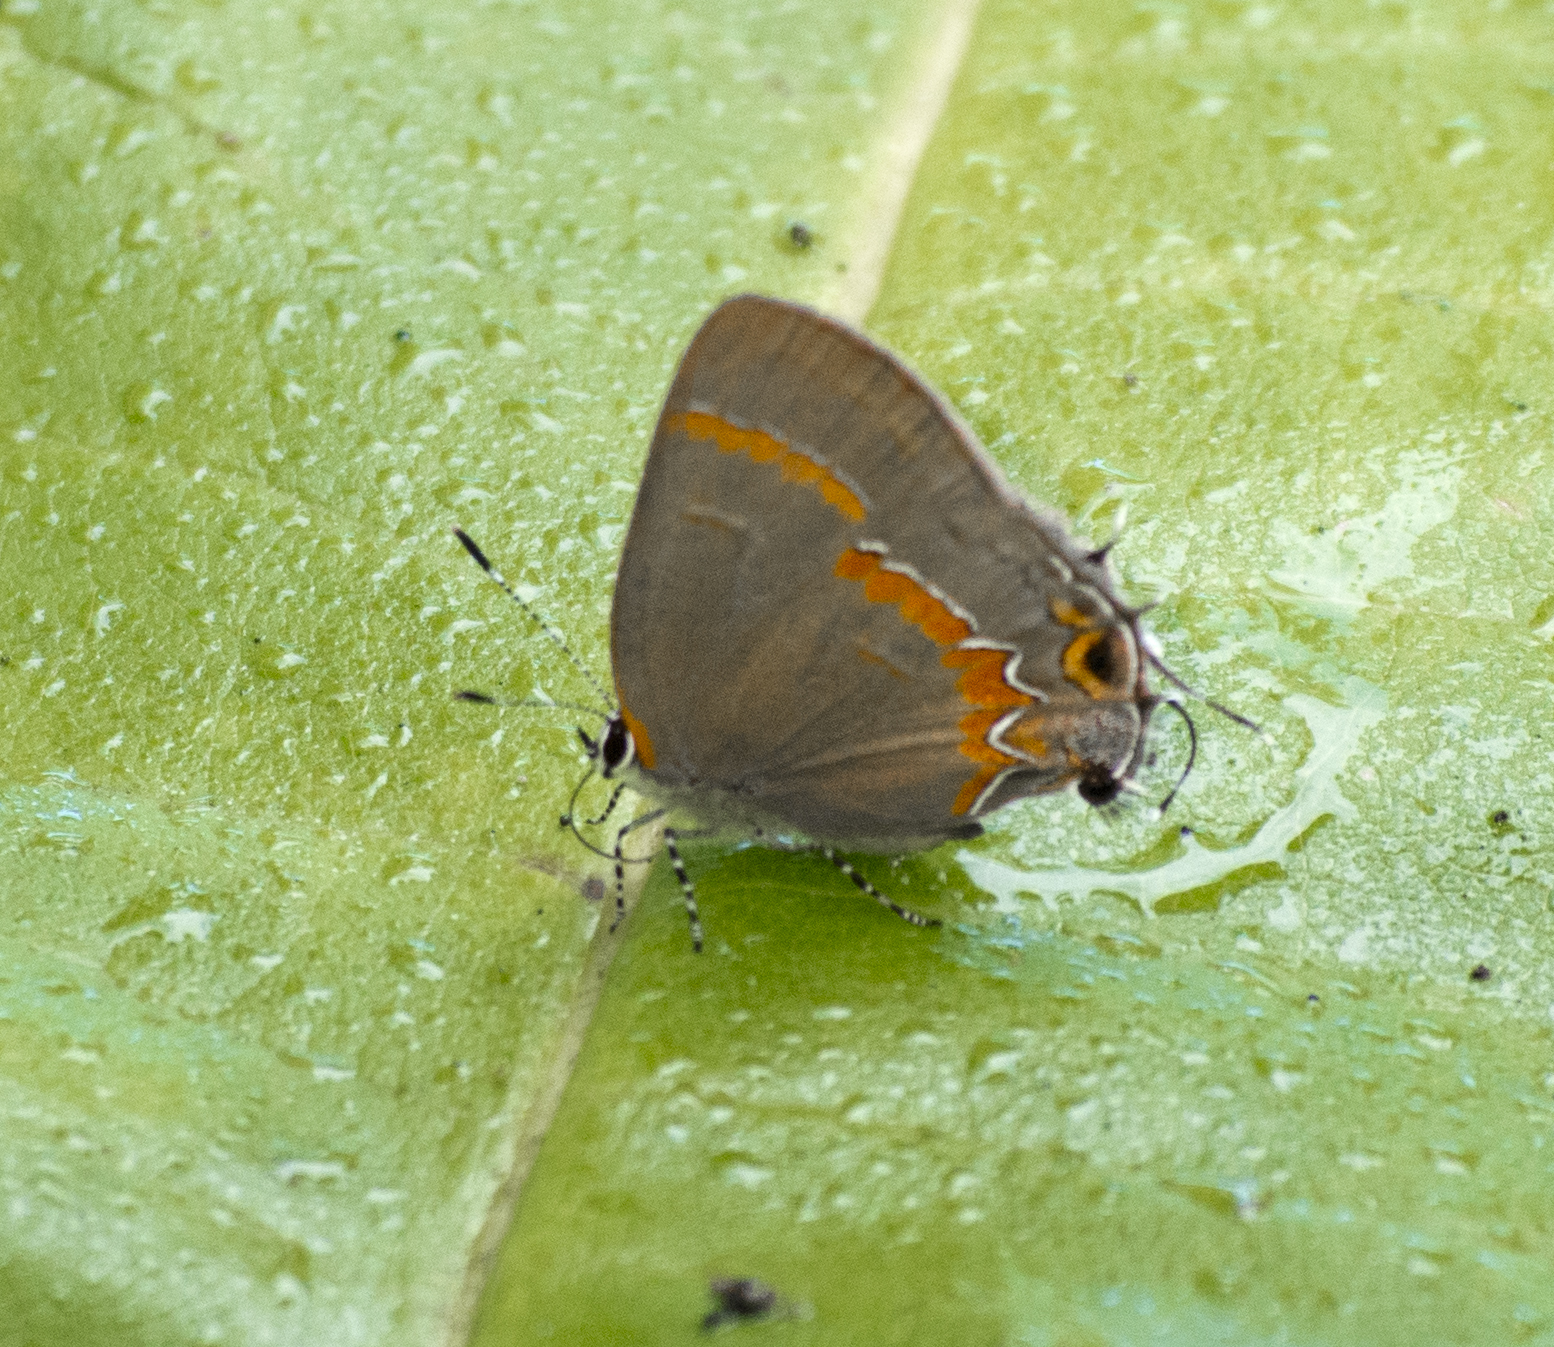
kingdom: Animalia
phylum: Arthropoda
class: Insecta
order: Lepidoptera
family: Lycaenidae
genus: Calycopis
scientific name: Calycopis cecrops
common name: Red-banded hairstreak
